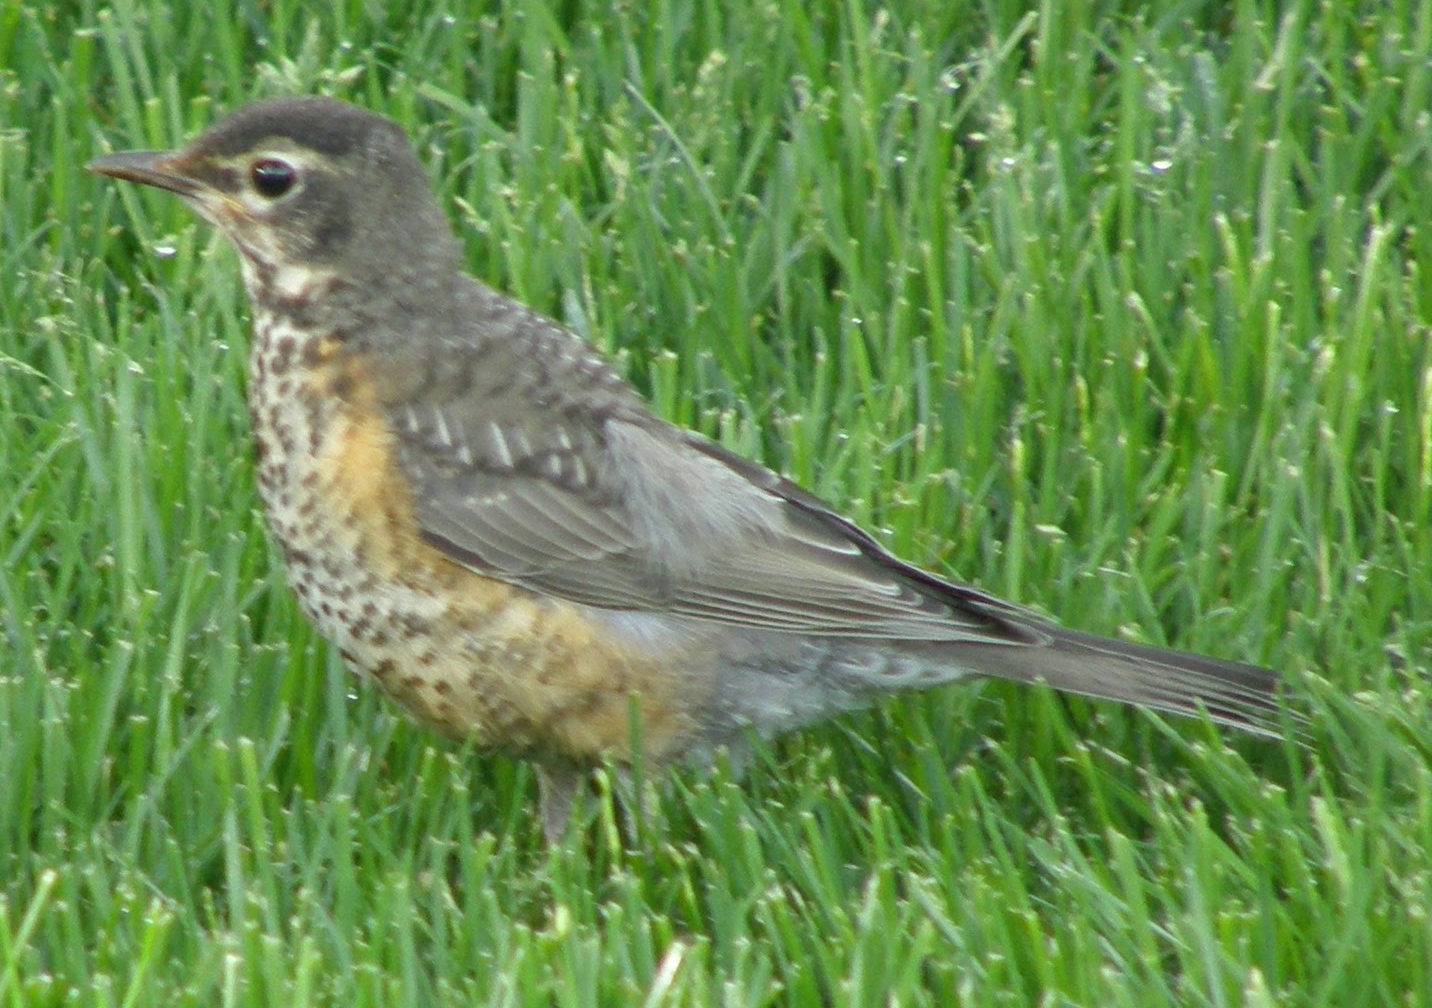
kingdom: Animalia
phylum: Chordata
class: Aves
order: Passeriformes
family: Turdidae
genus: Turdus
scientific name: Turdus migratorius
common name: American robin
